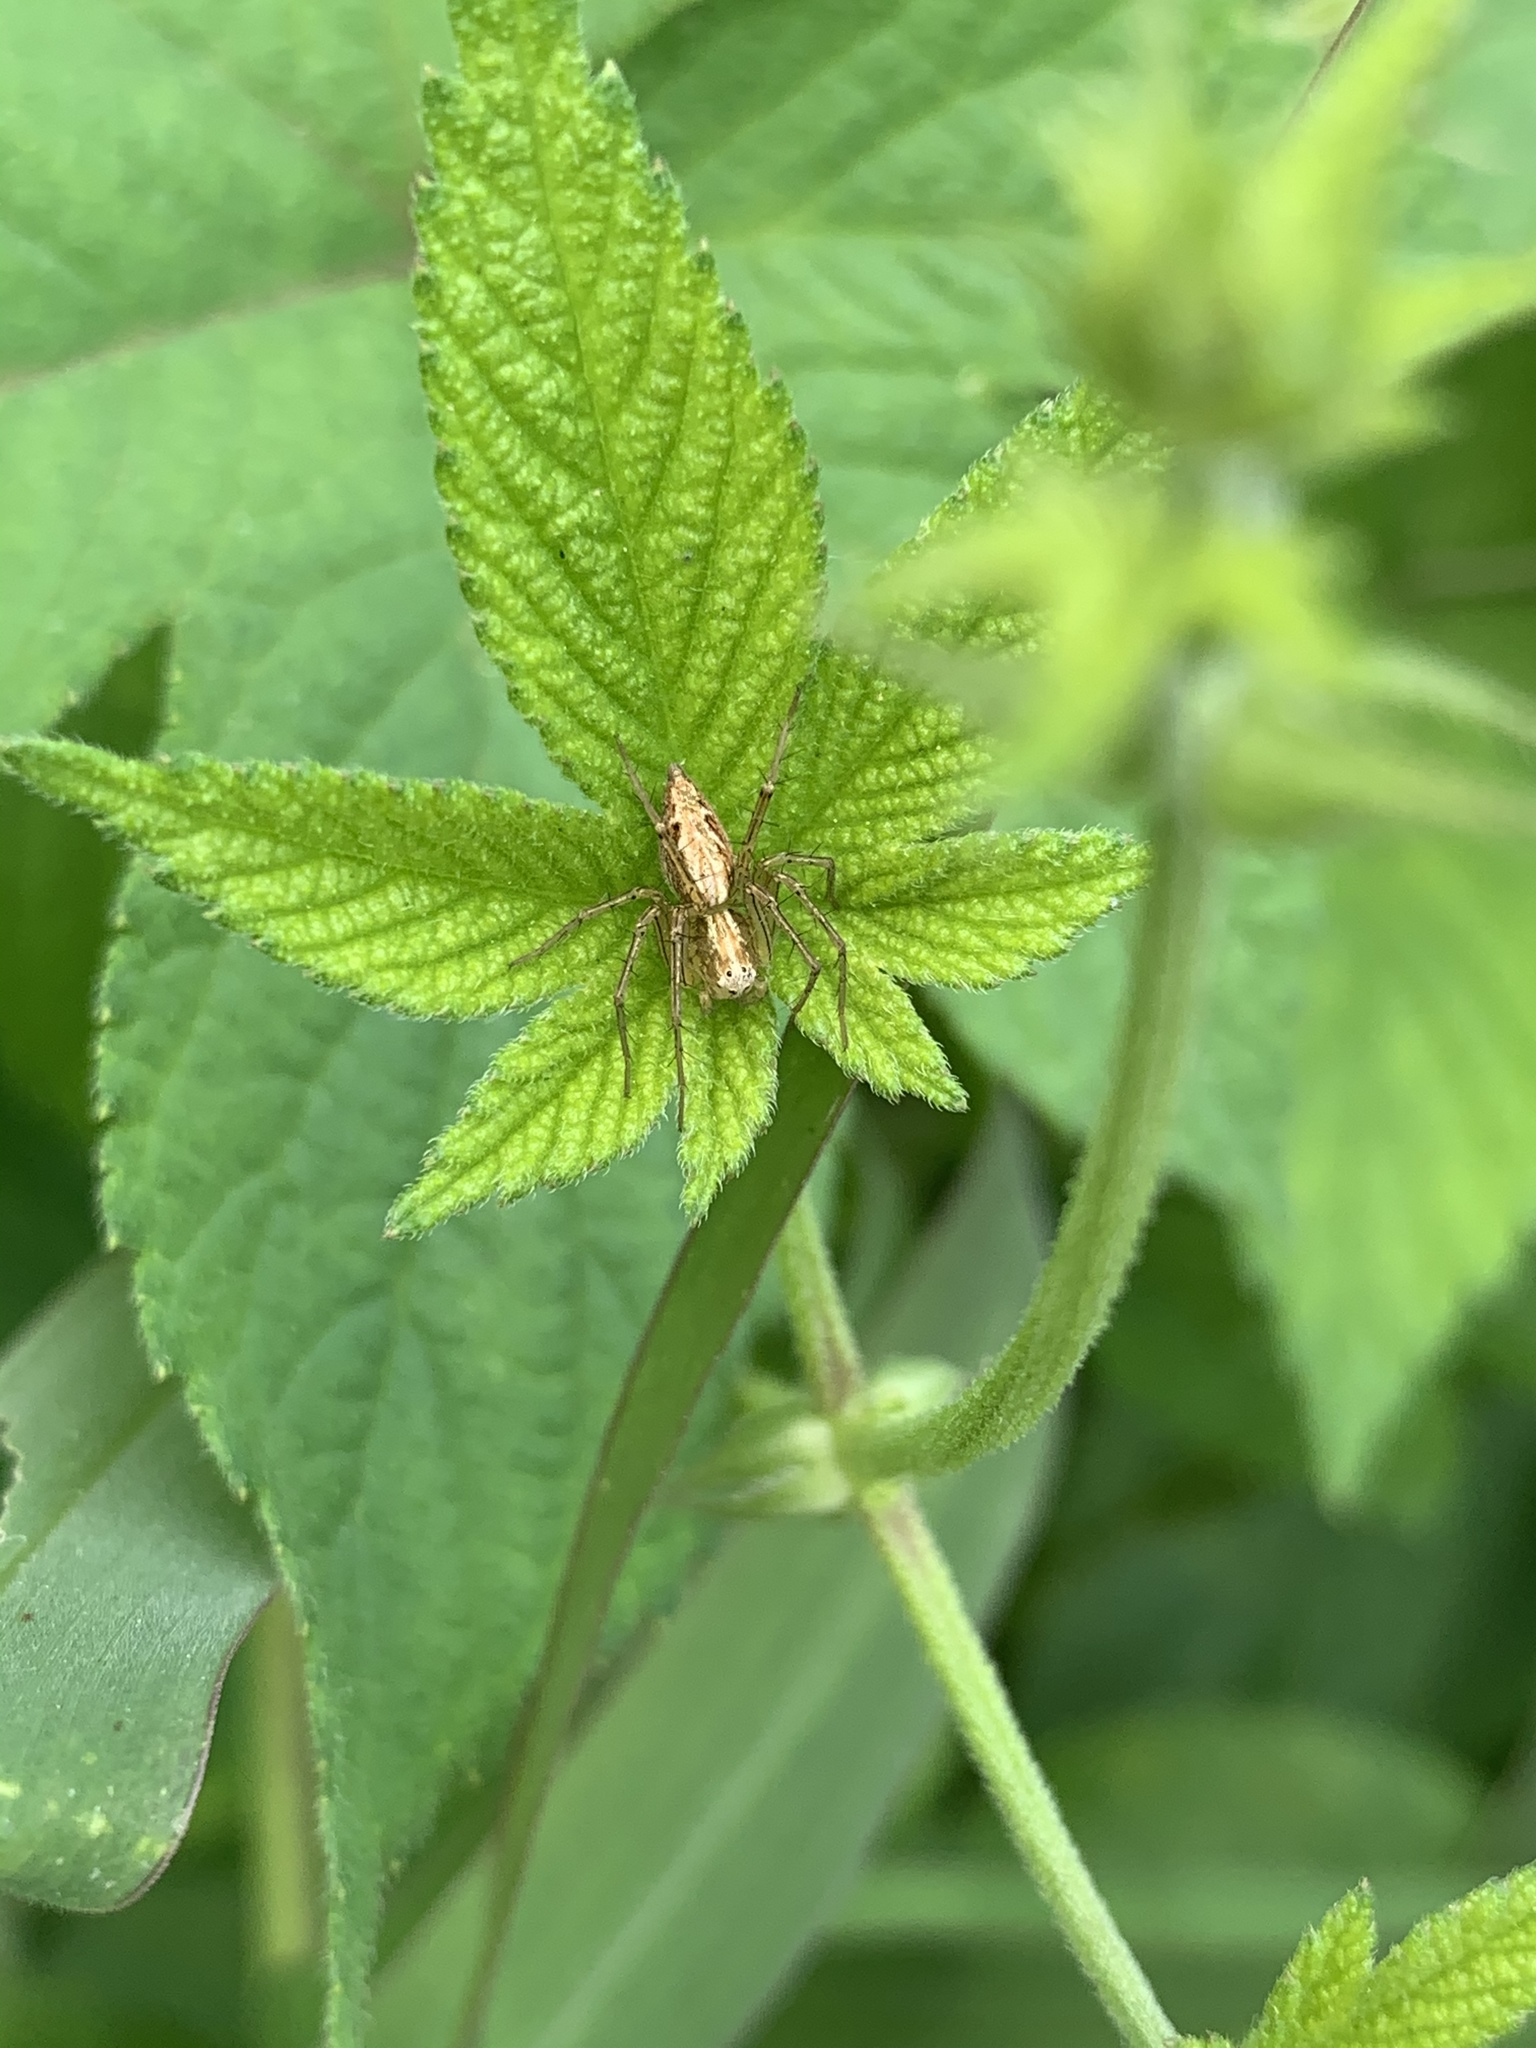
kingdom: Animalia
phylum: Arthropoda
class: Arachnida
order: Araneae
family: Oxyopidae
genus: Oxyopes
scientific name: Oxyopes sertatus
